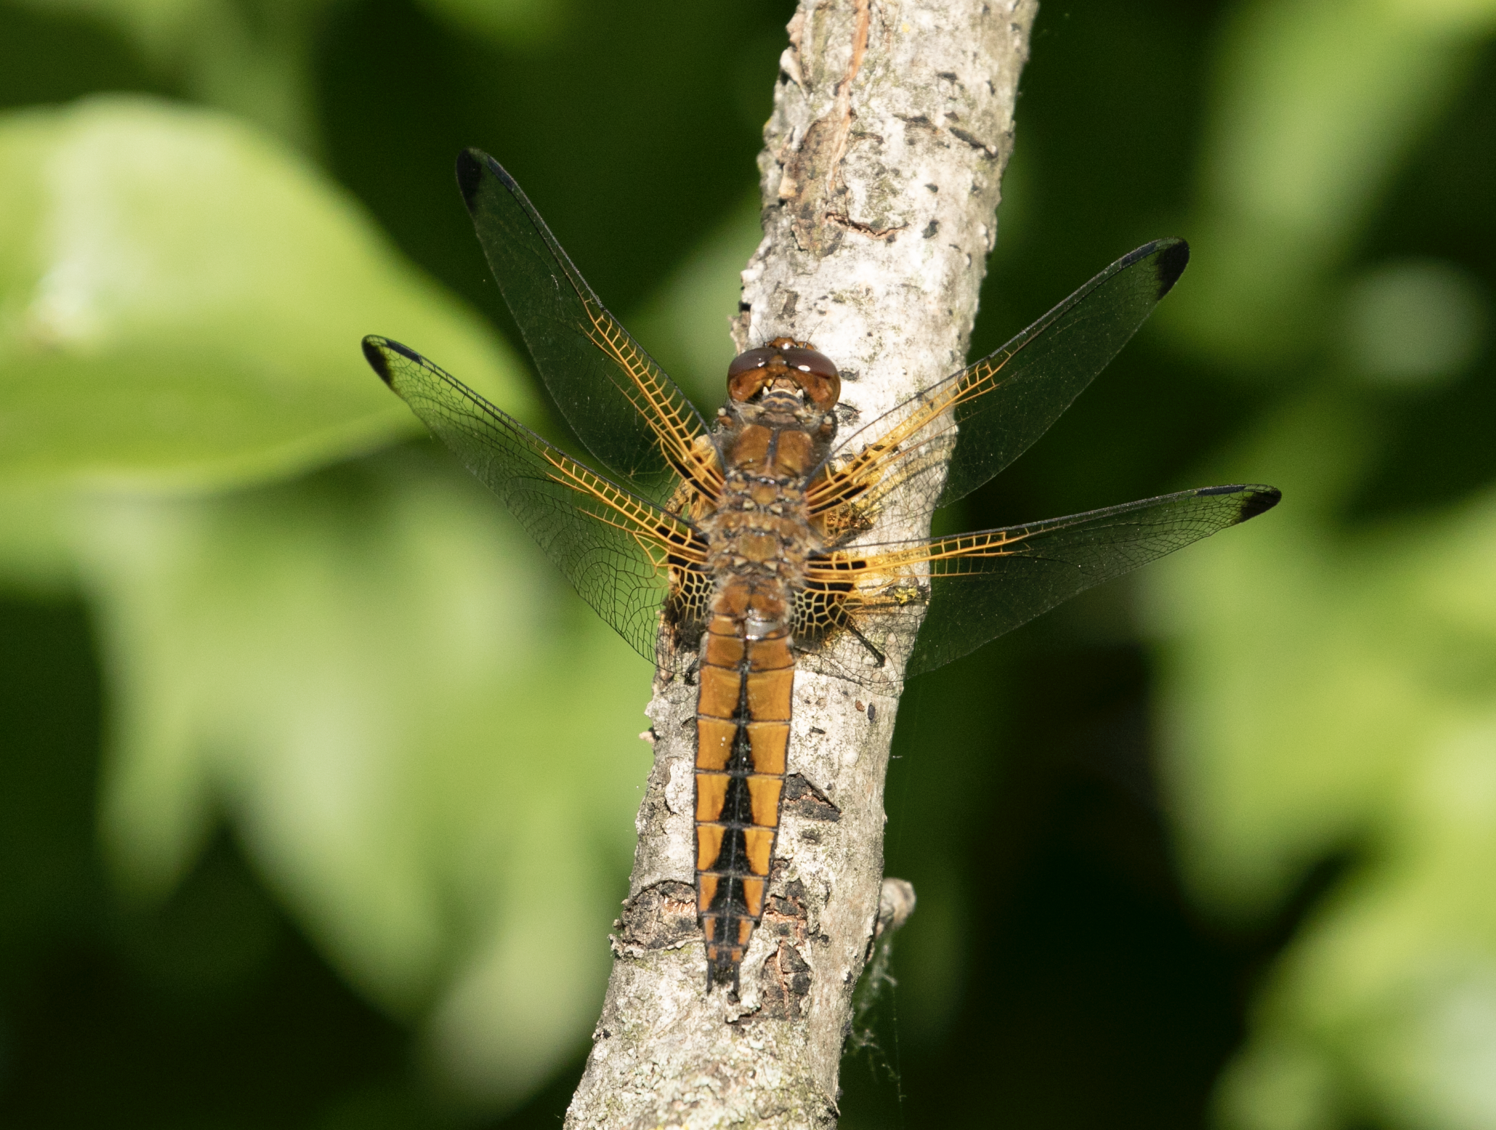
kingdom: Animalia
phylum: Arthropoda
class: Insecta
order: Odonata
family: Libellulidae
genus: Libellula
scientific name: Libellula fulva
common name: Blue chaser
